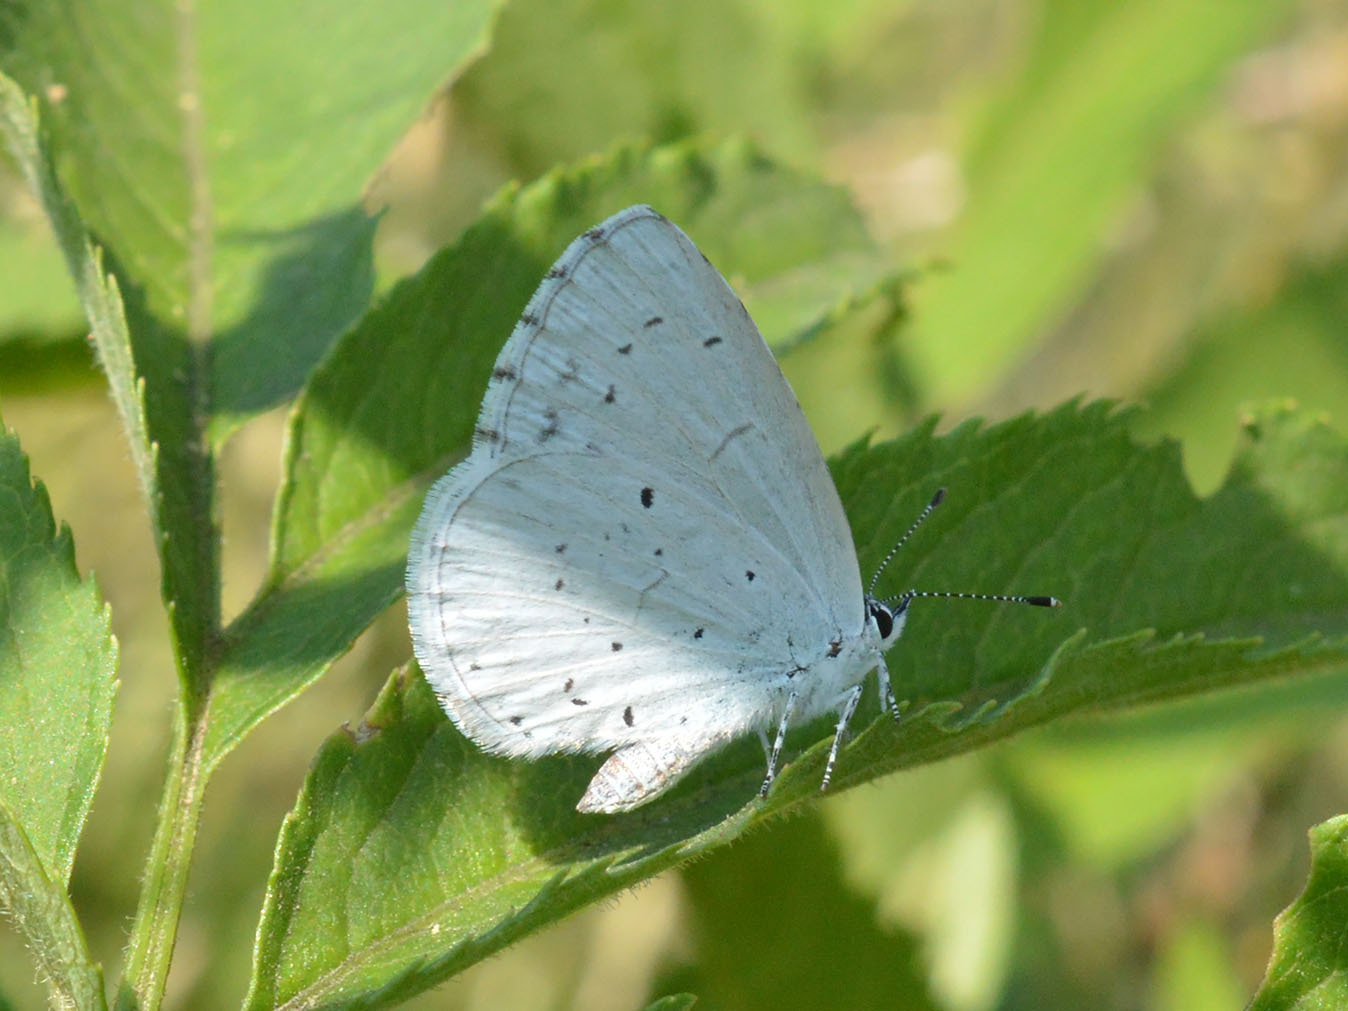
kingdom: Animalia
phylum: Arthropoda
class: Insecta
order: Lepidoptera
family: Lycaenidae
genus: Celastrina
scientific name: Celastrina argiolus
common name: Holly blue
